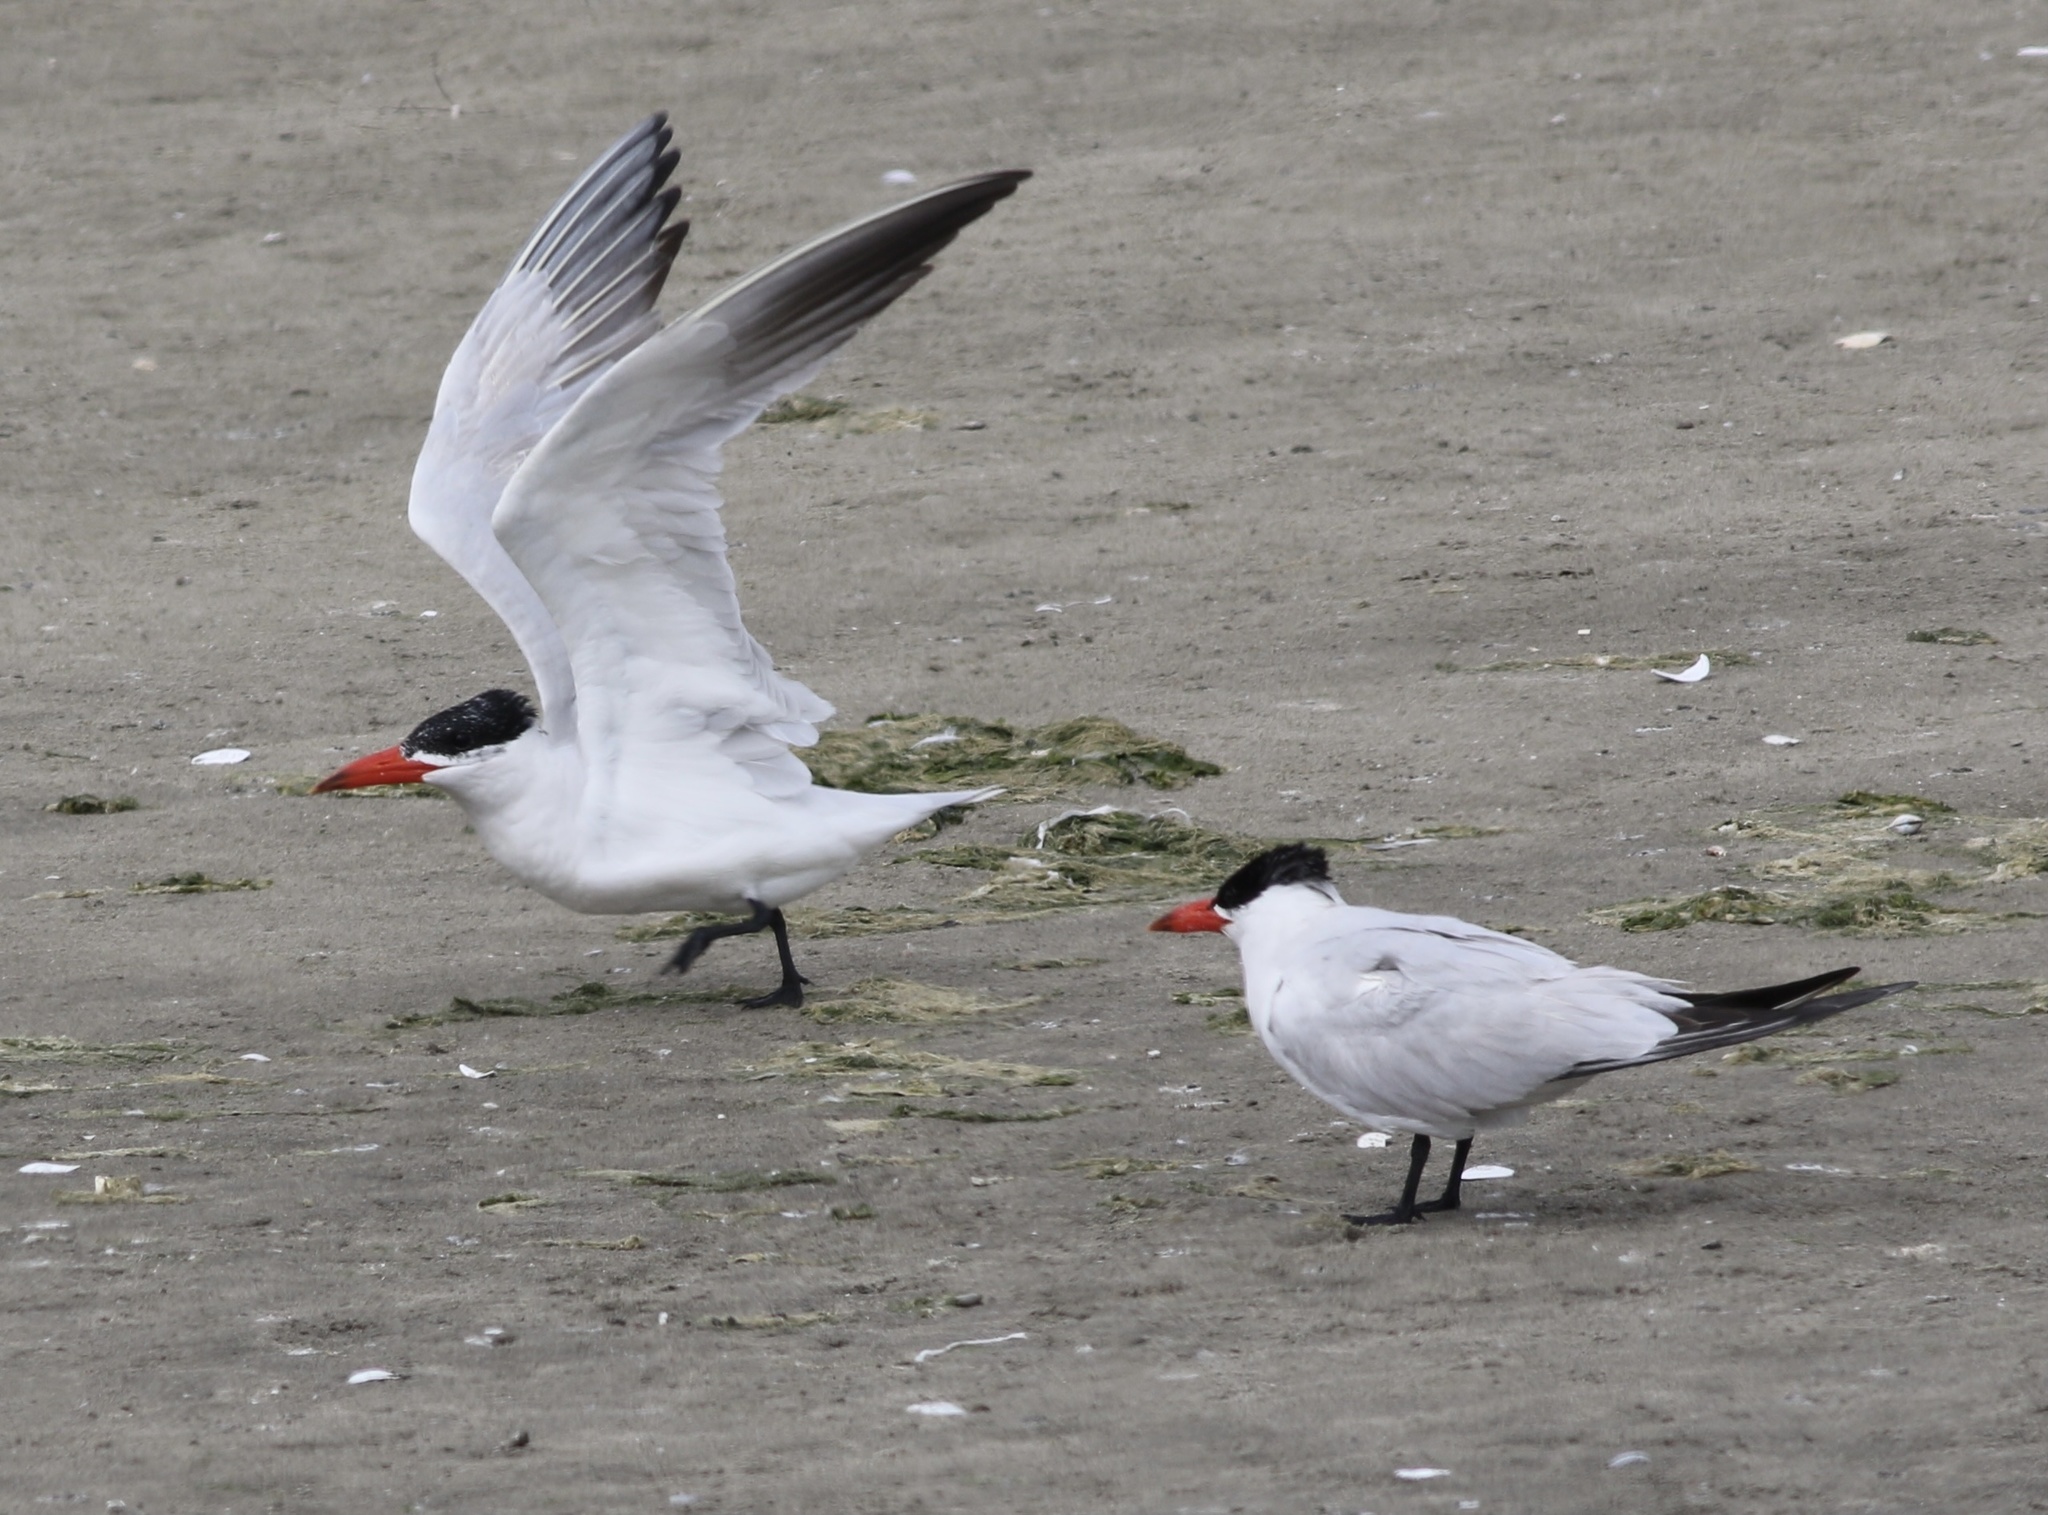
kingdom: Animalia
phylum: Chordata
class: Aves
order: Charadriiformes
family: Laridae
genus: Hydroprogne
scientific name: Hydroprogne caspia
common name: Caspian tern
